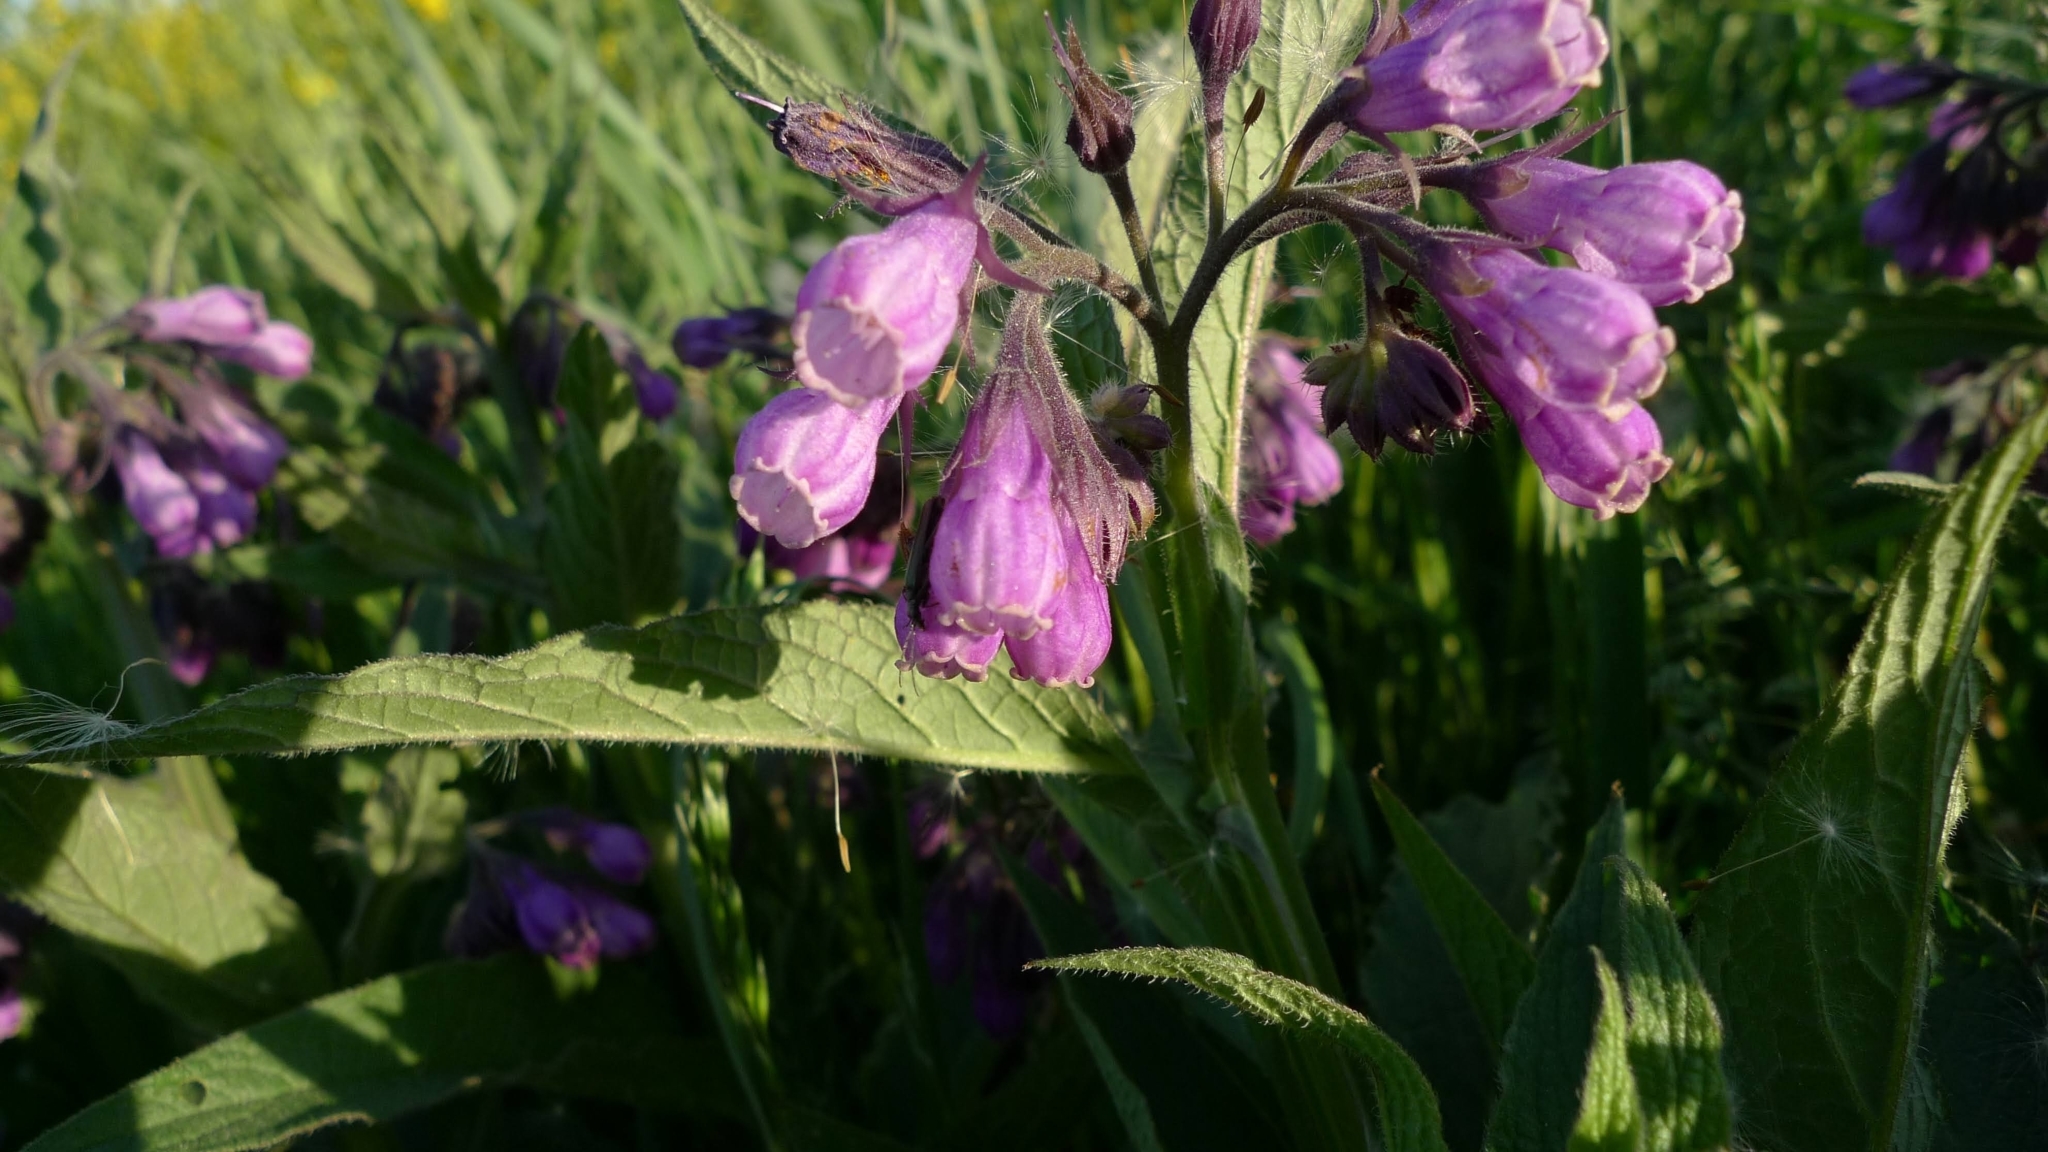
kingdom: Plantae
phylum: Tracheophyta
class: Magnoliopsida
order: Boraginales
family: Boraginaceae
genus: Symphytum
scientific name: Symphytum officinale
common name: Common comfrey
